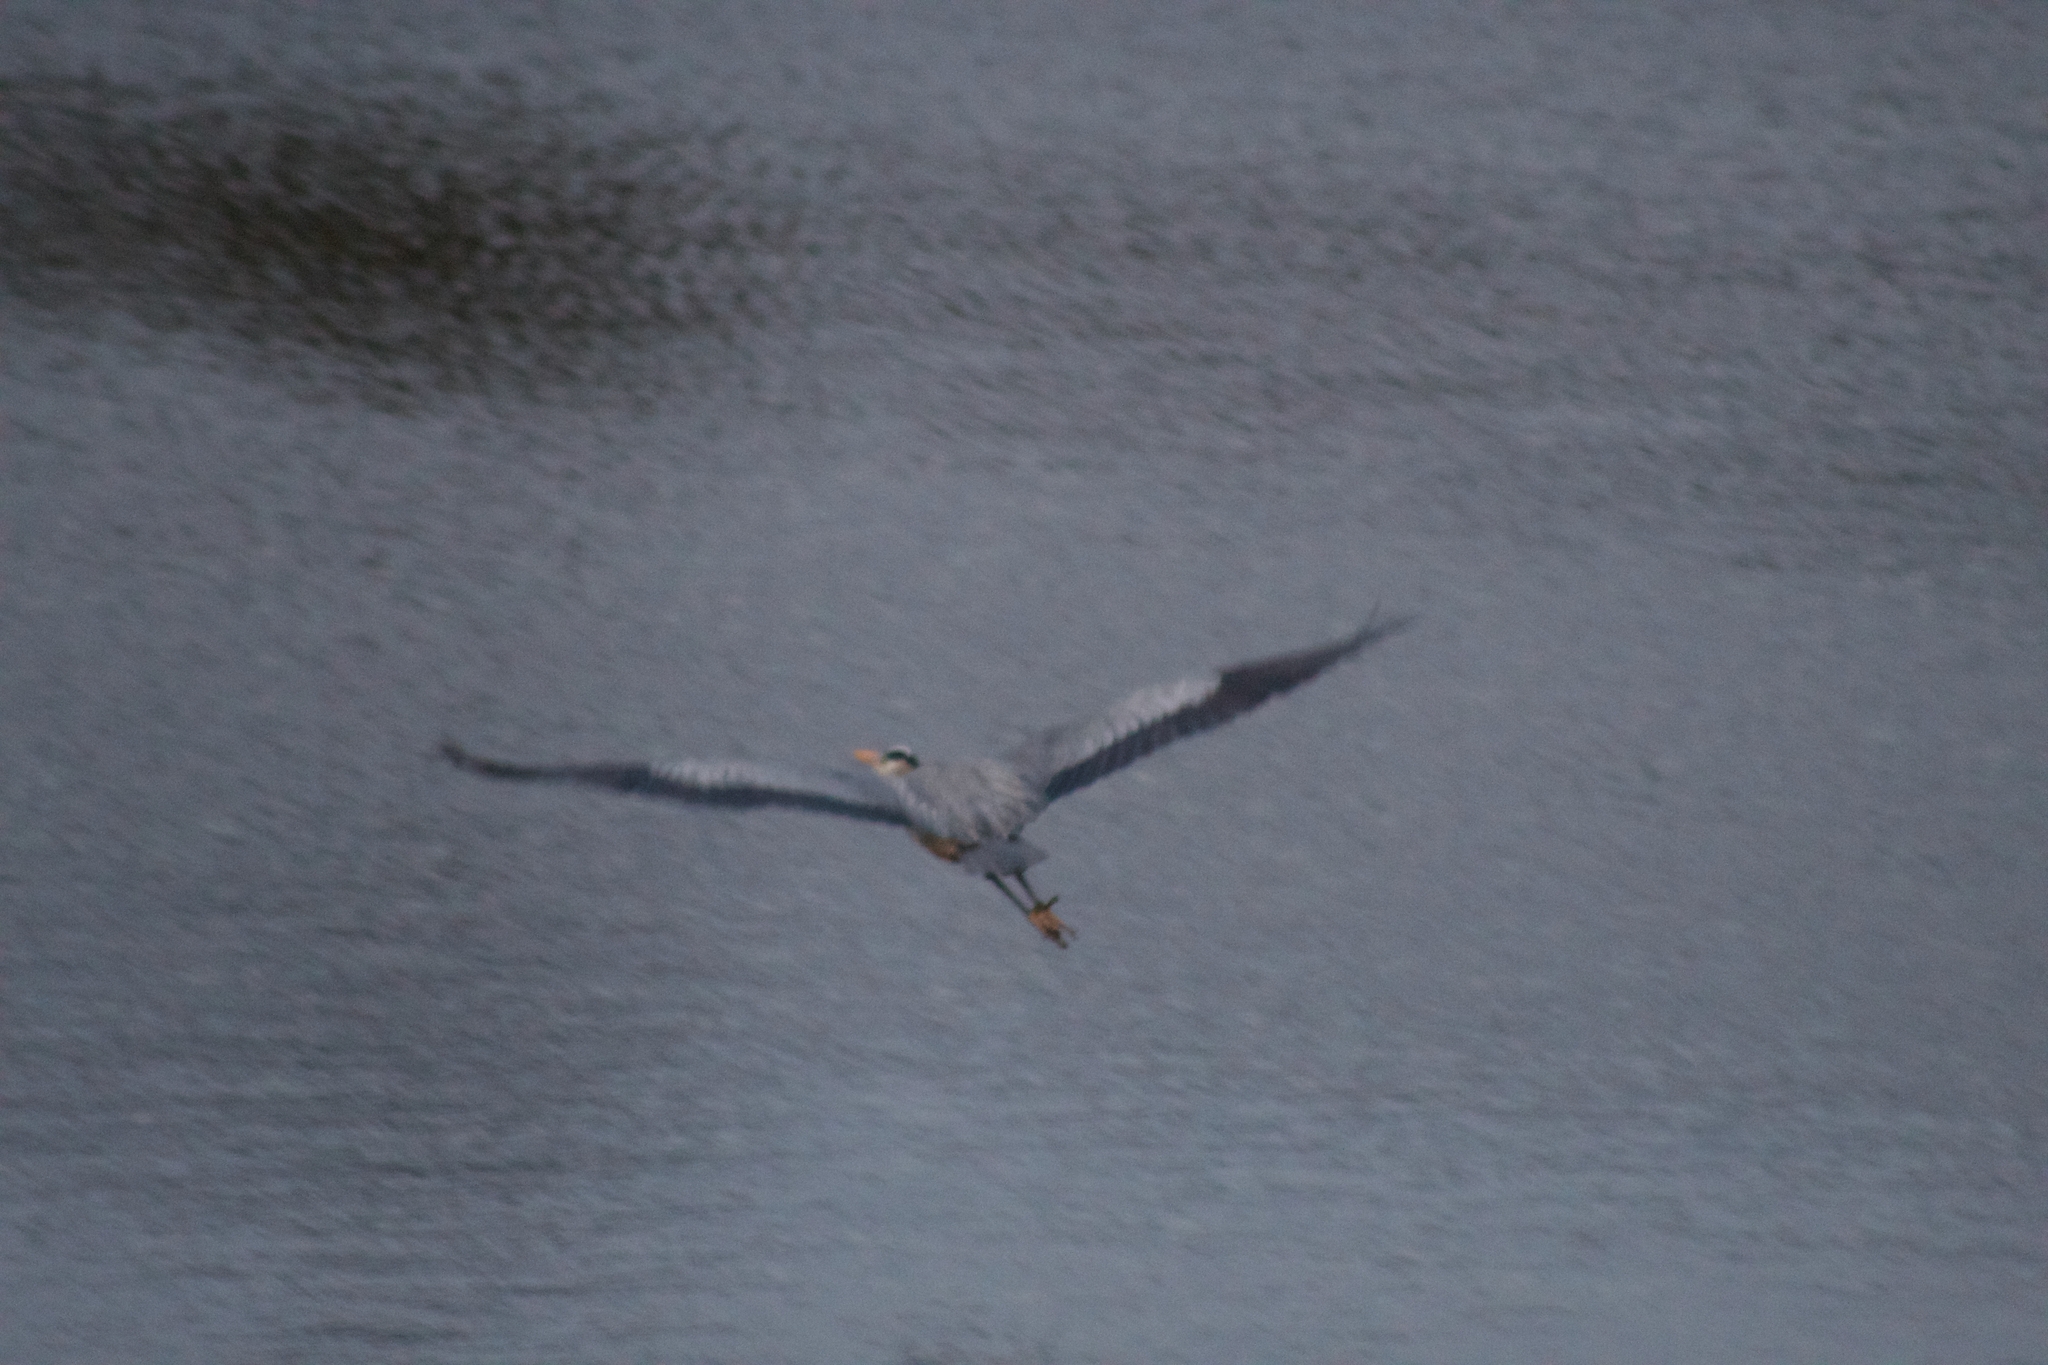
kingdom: Animalia
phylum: Chordata
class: Aves
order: Pelecaniformes
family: Ardeidae
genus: Ardea
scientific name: Ardea herodias
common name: Great blue heron
